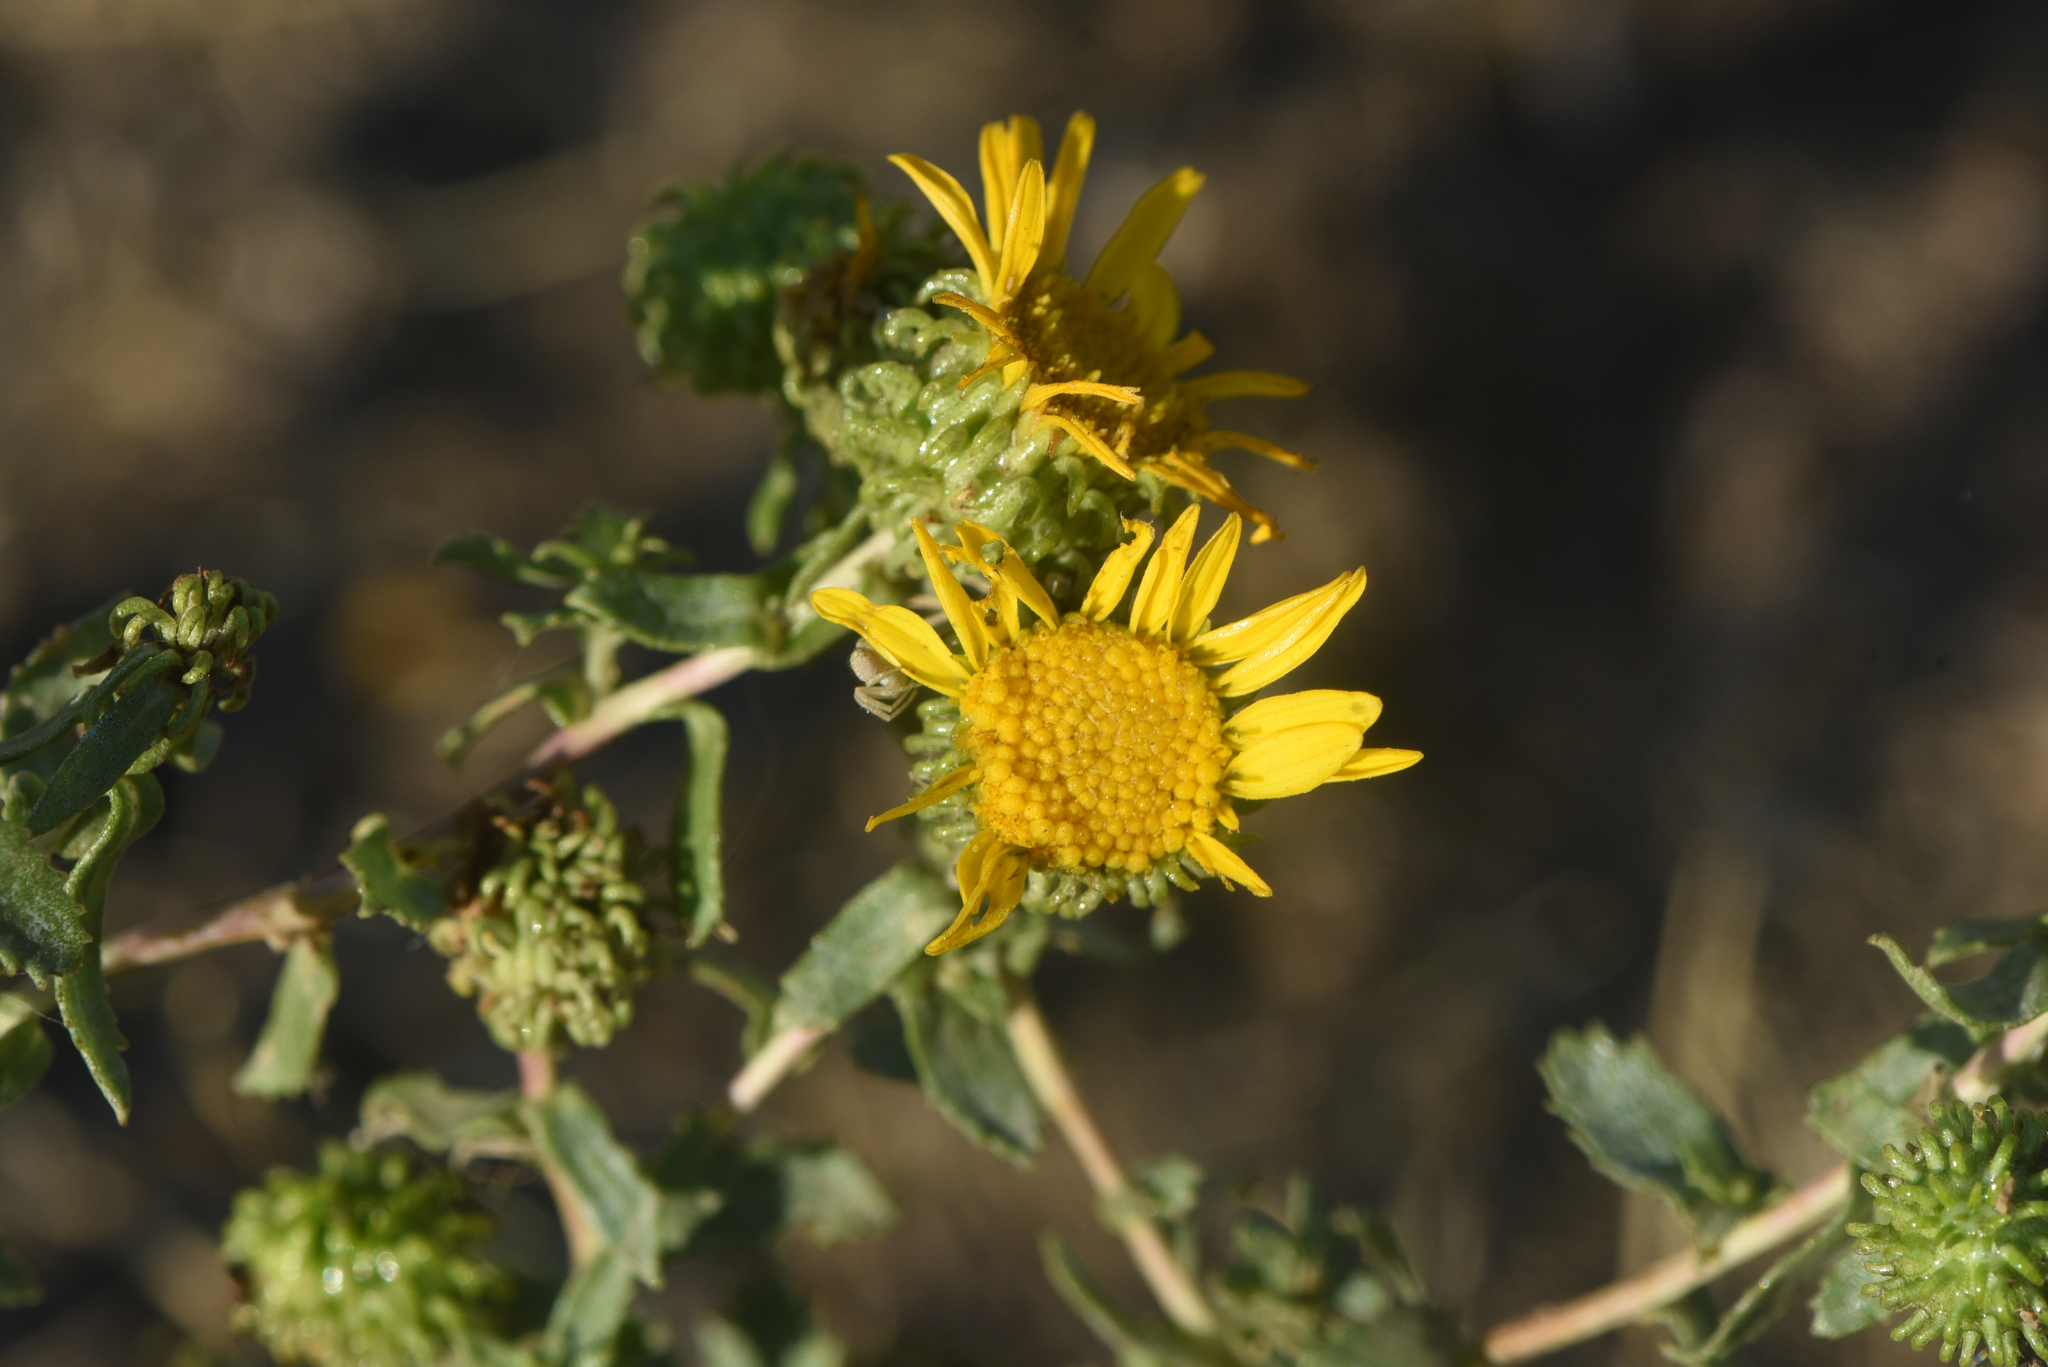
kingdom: Plantae
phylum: Tracheophyta
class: Magnoliopsida
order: Asterales
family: Asteraceae
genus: Grindelia
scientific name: Grindelia squarrosa
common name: Curly-cup gumweed
